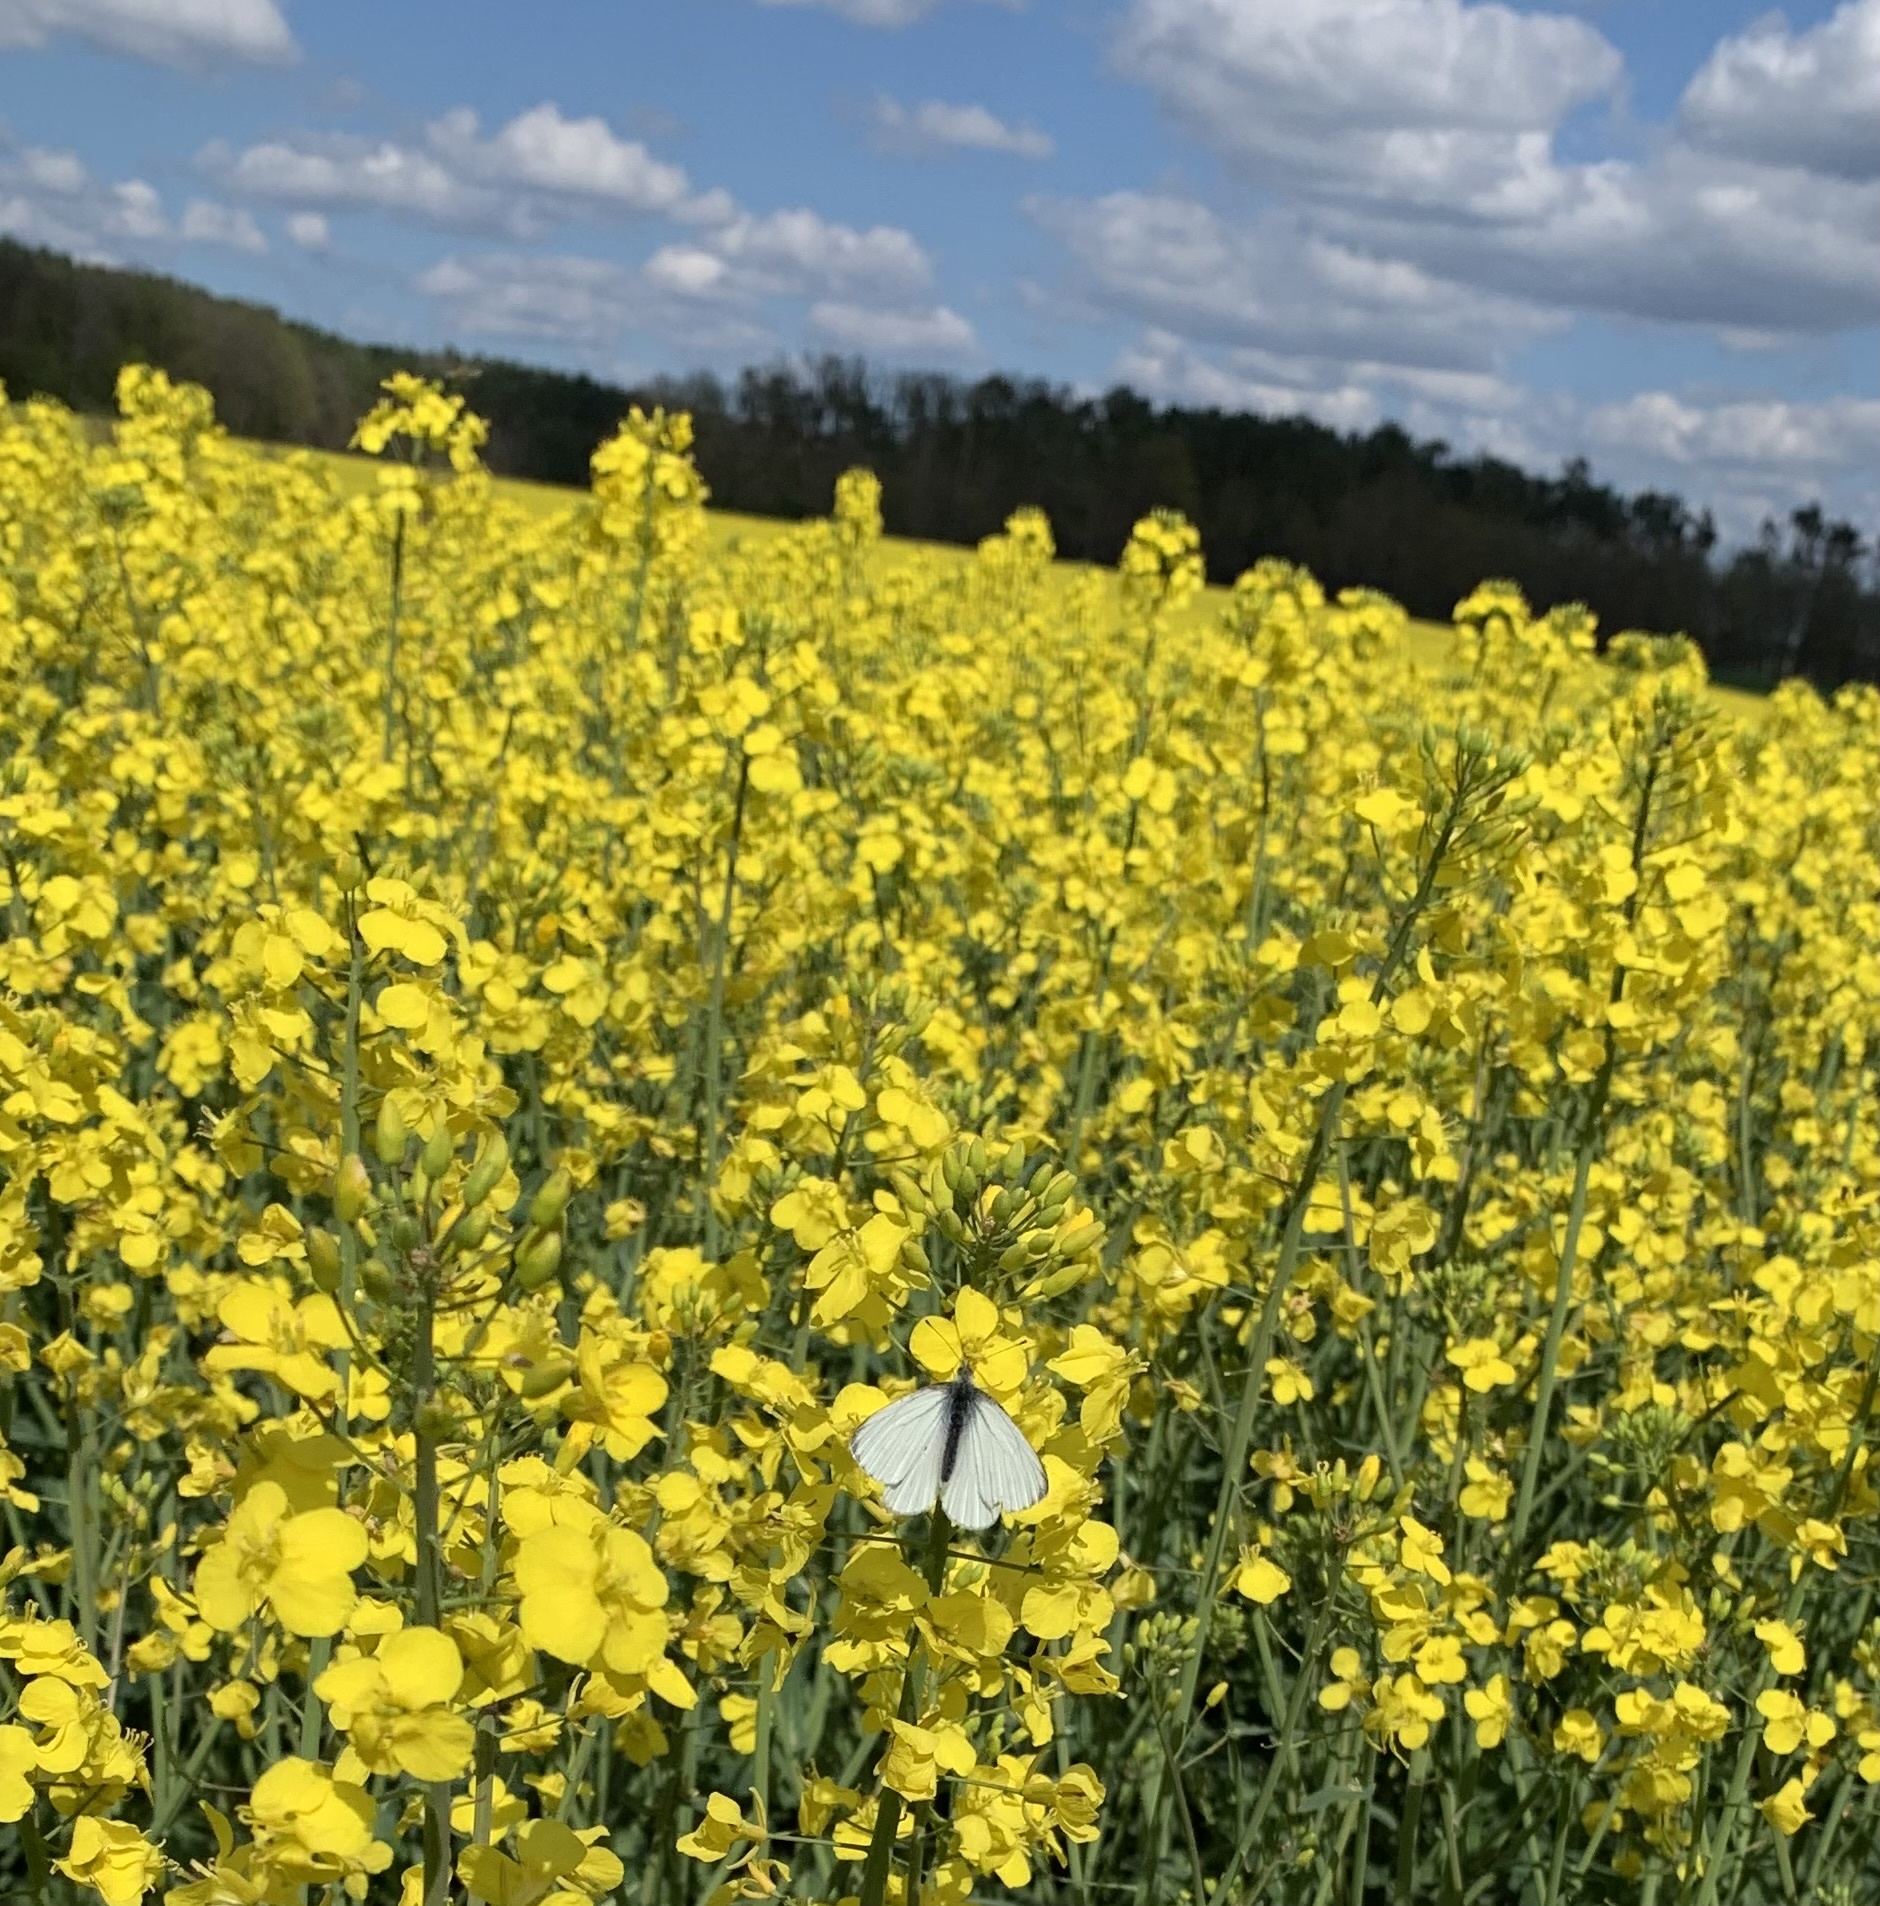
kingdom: Animalia
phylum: Arthropoda
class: Insecta
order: Lepidoptera
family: Pieridae
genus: Pieris
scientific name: Pieris napi
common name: Green-veined white
